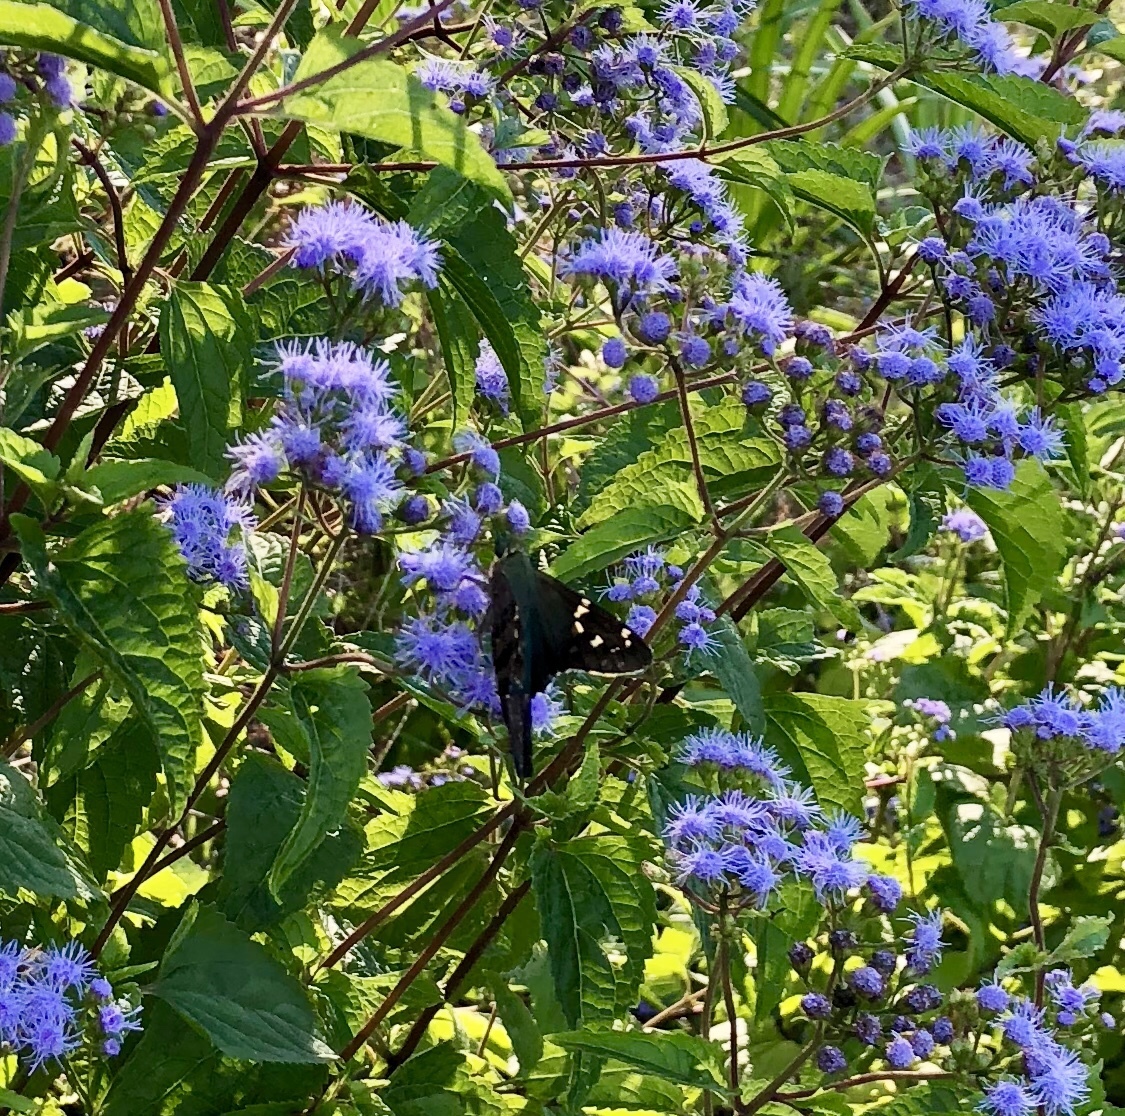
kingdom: Animalia
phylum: Arthropoda
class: Insecta
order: Lepidoptera
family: Hesperiidae
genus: Urbanus
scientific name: Urbanus proteus
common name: Long-tailed skipper
